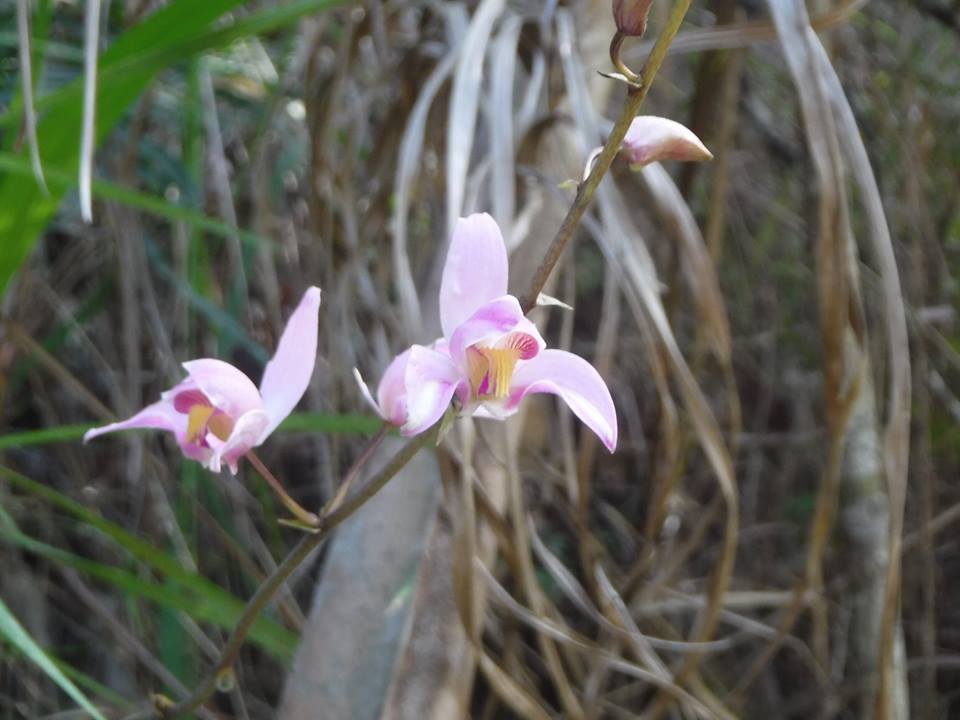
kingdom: Plantae
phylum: Tracheophyta
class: Liliopsida
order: Asparagales
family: Orchidaceae
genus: Bletia
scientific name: Bletia purpurea
